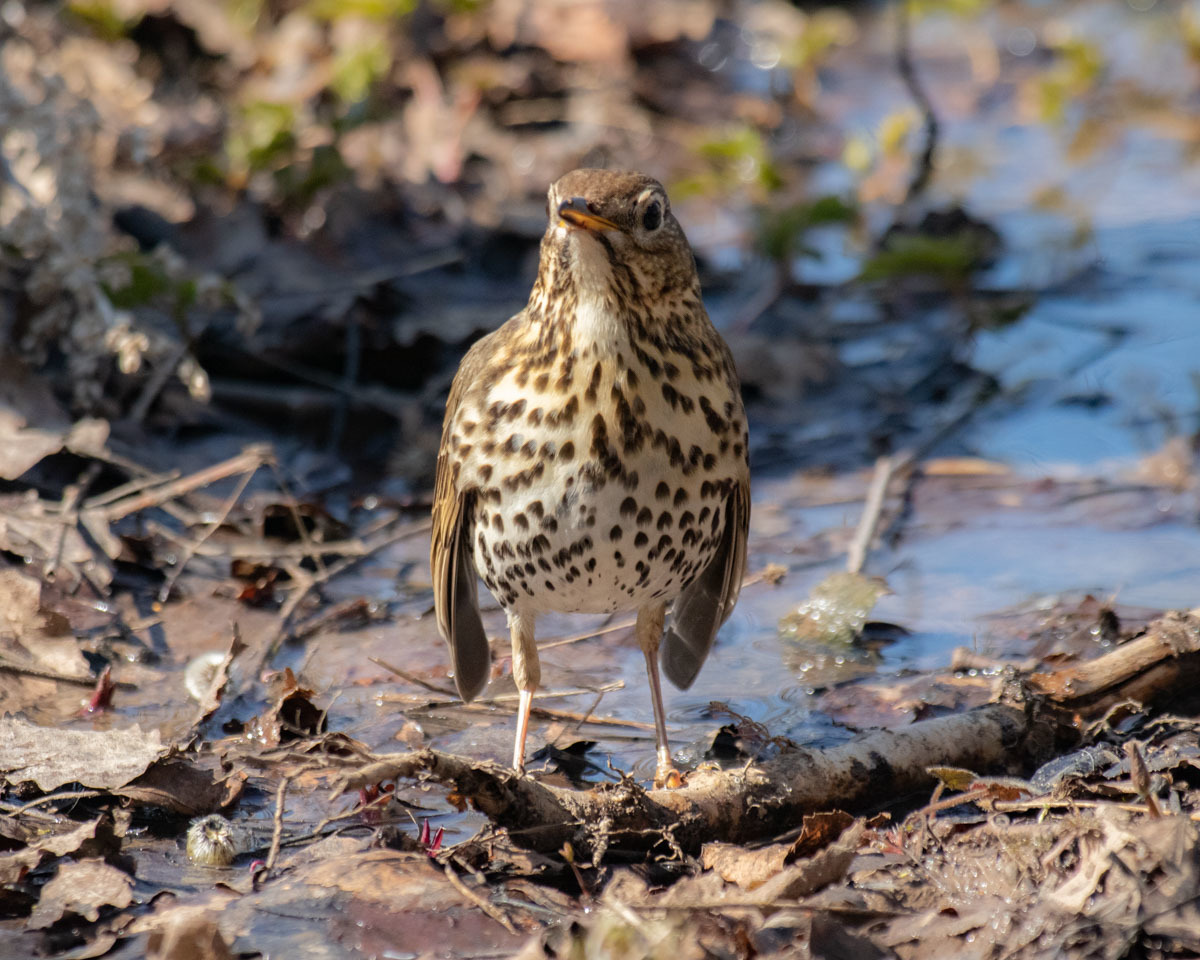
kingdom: Animalia
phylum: Chordata
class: Aves
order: Passeriformes
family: Turdidae
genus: Turdus
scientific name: Turdus philomelos
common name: Song thrush
